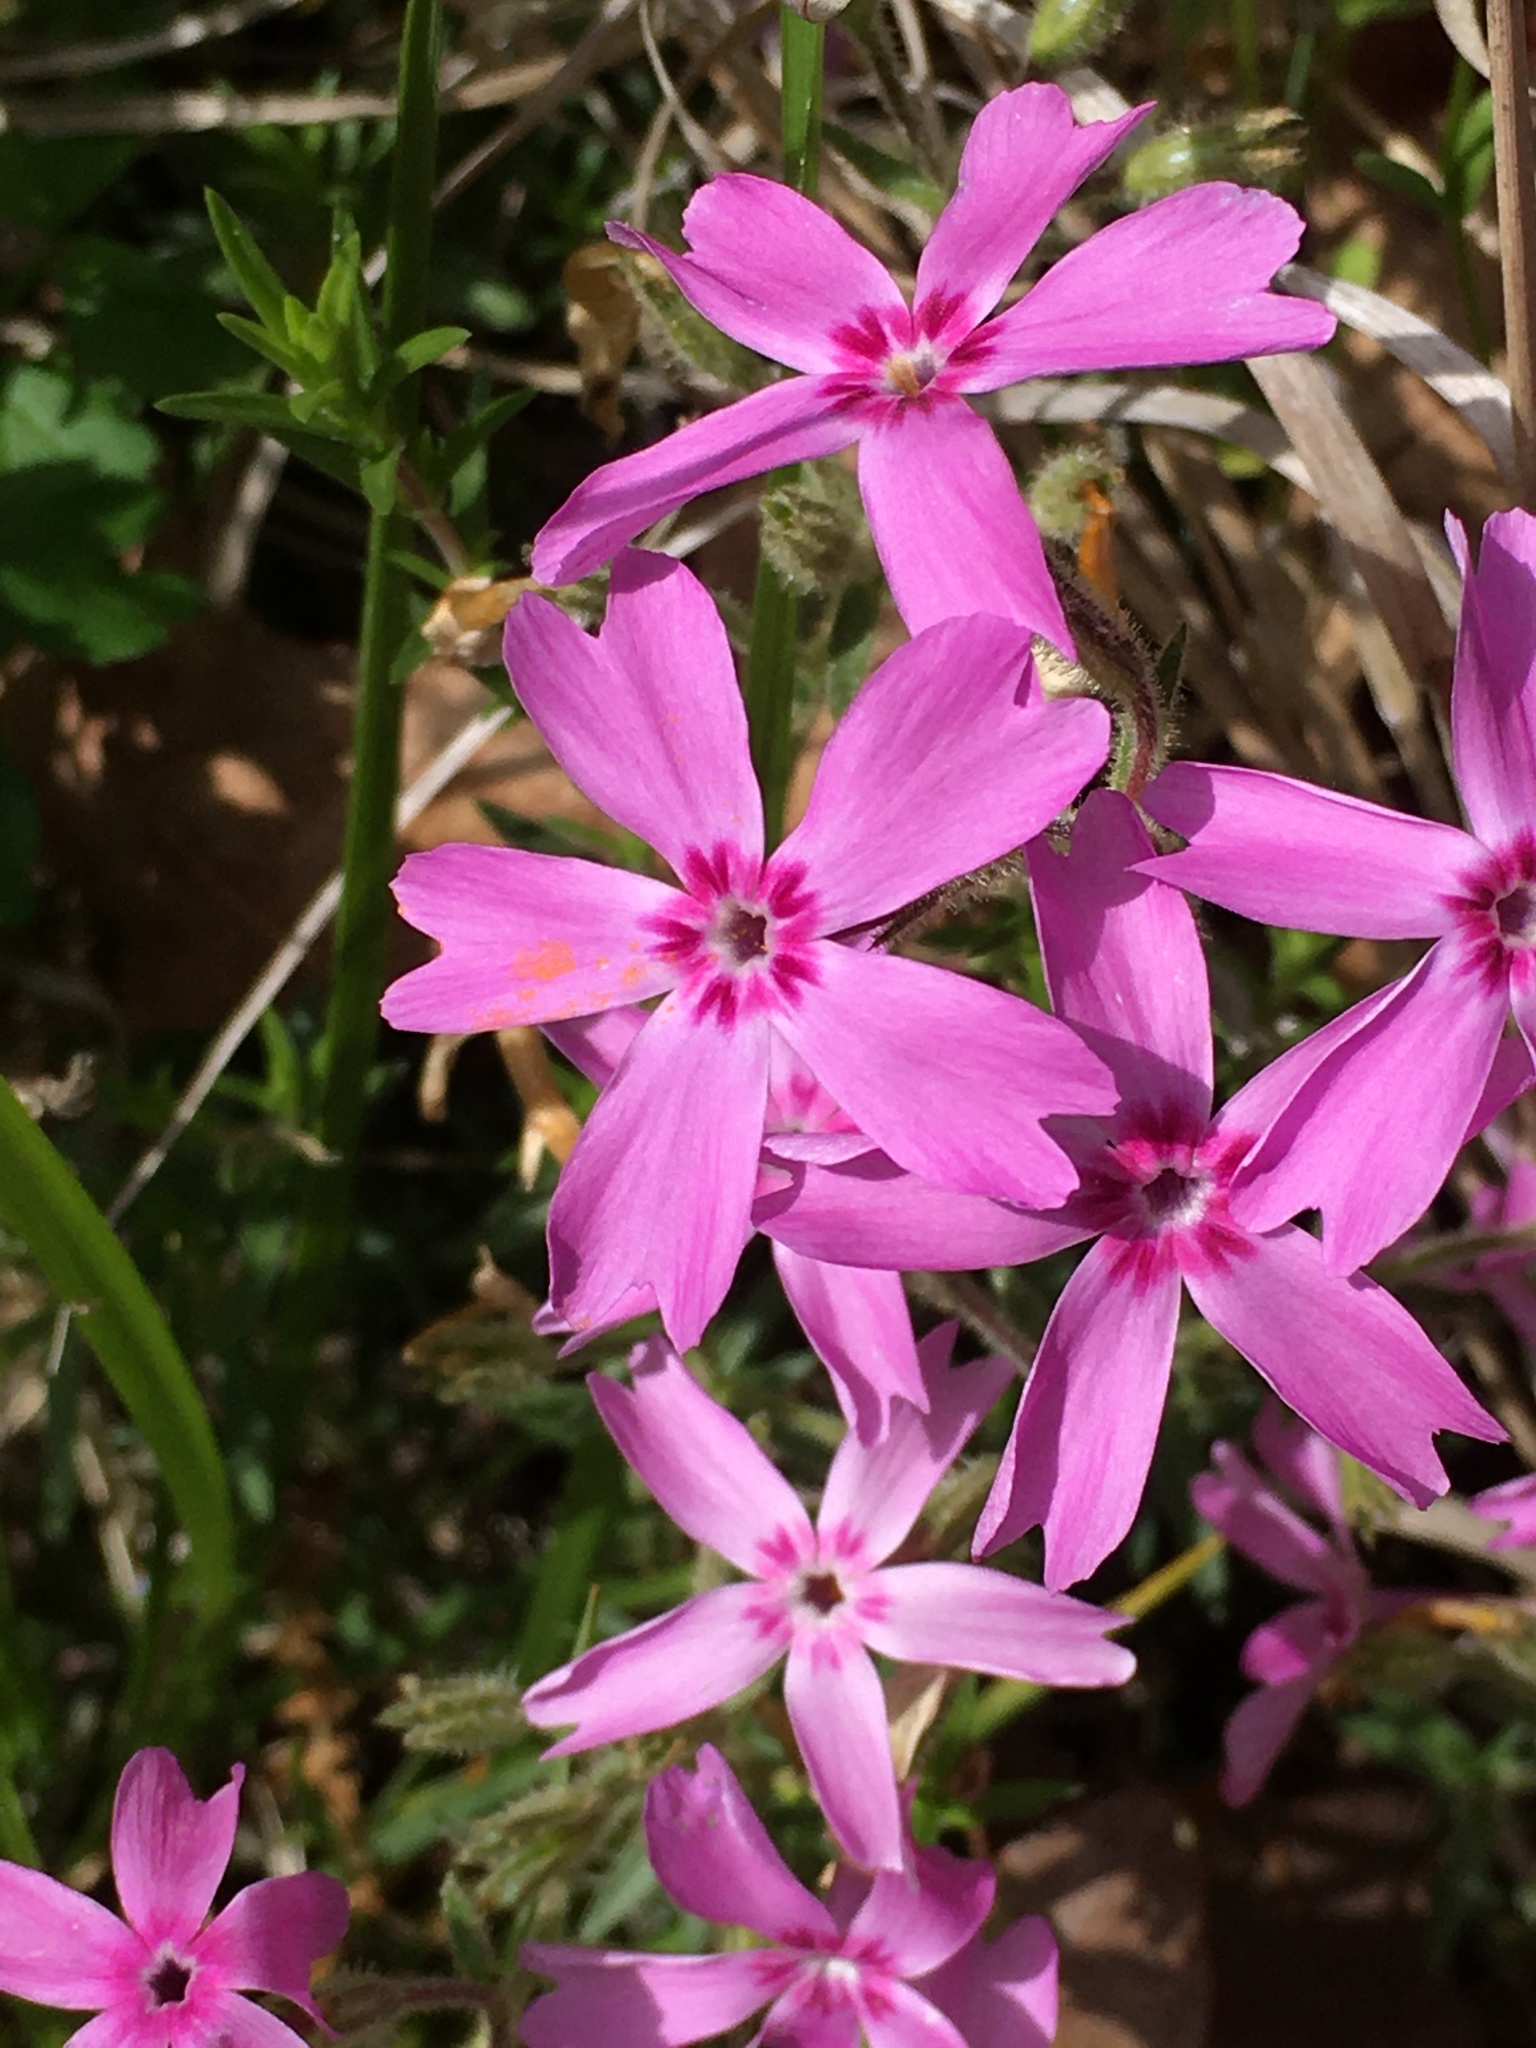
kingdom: Plantae
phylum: Tracheophyta
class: Magnoliopsida
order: Ericales
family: Polemoniaceae
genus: Phlox
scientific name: Phlox nivalis
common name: Trailing phlox
